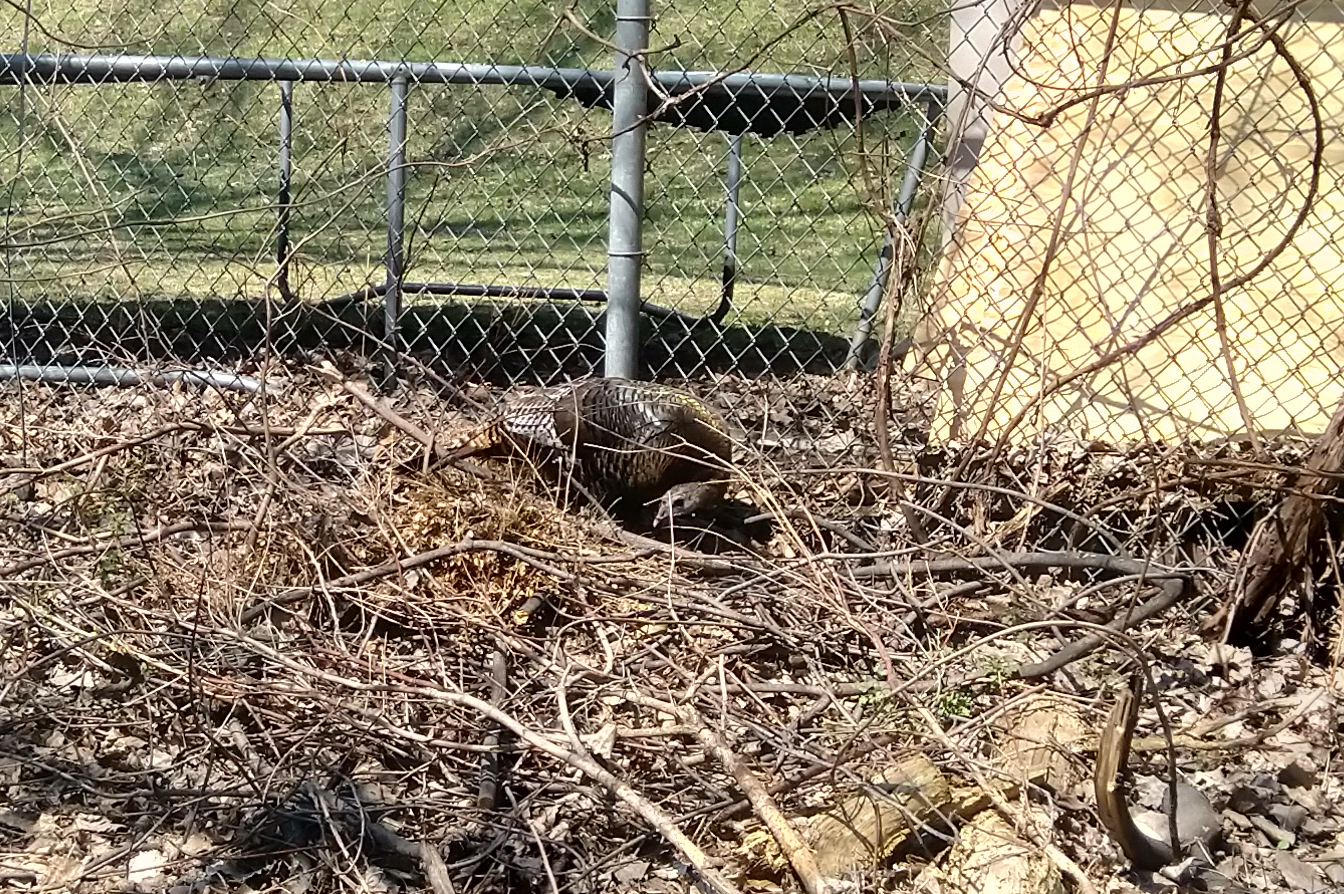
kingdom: Animalia
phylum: Chordata
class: Aves
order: Galliformes
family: Phasianidae
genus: Meleagris
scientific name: Meleagris gallopavo
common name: Wild turkey
